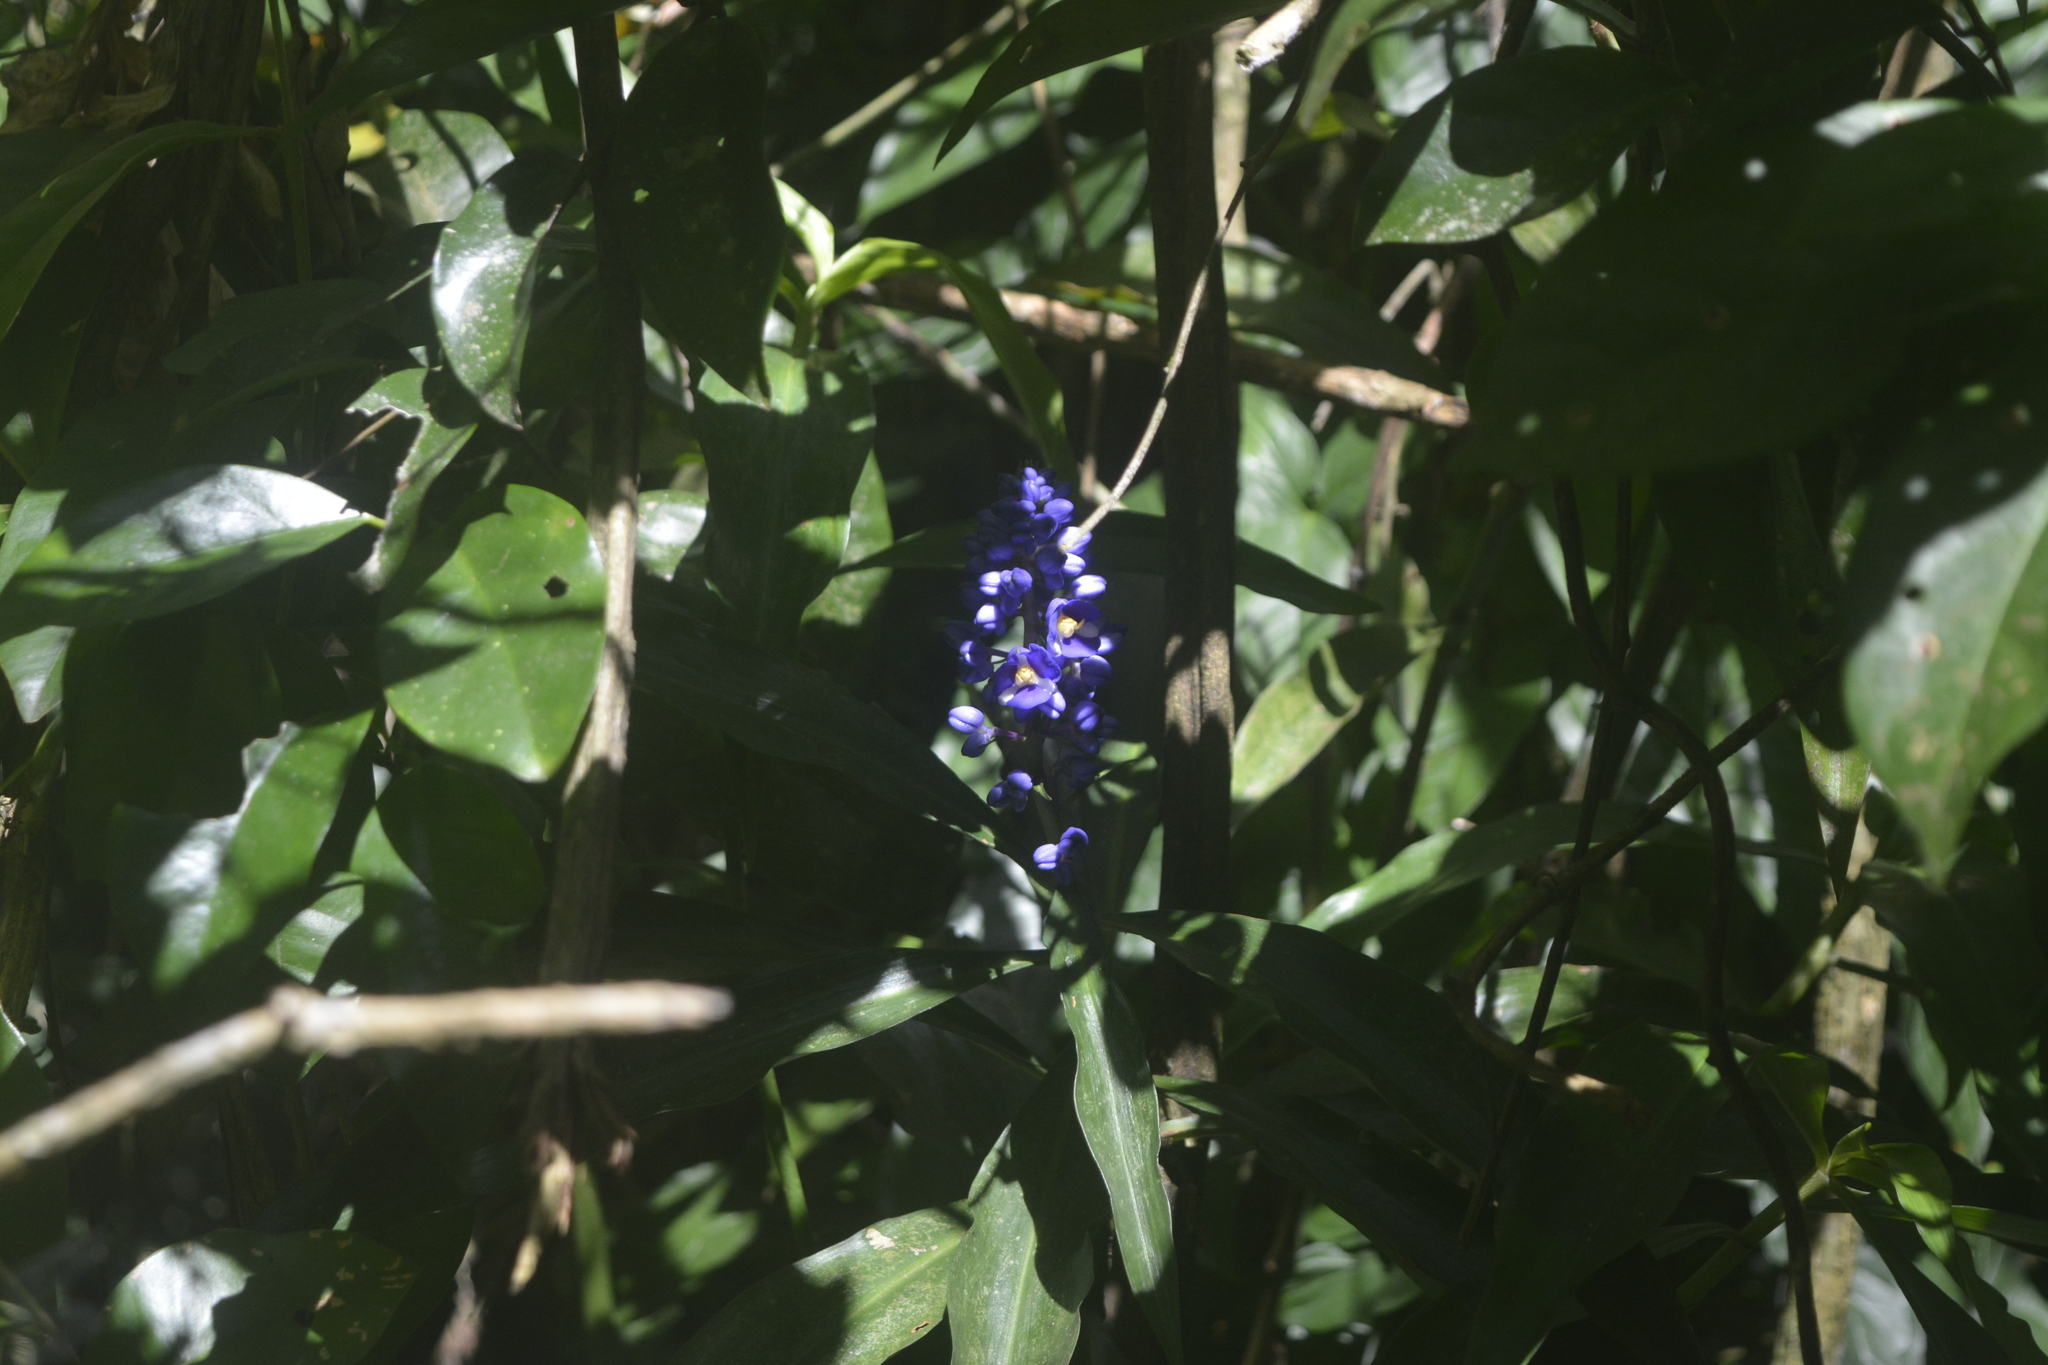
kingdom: Plantae
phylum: Tracheophyta
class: Liliopsida
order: Commelinales
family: Commelinaceae
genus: Dichorisandra
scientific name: Dichorisandra thyrsiflora
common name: Blue-ginger
